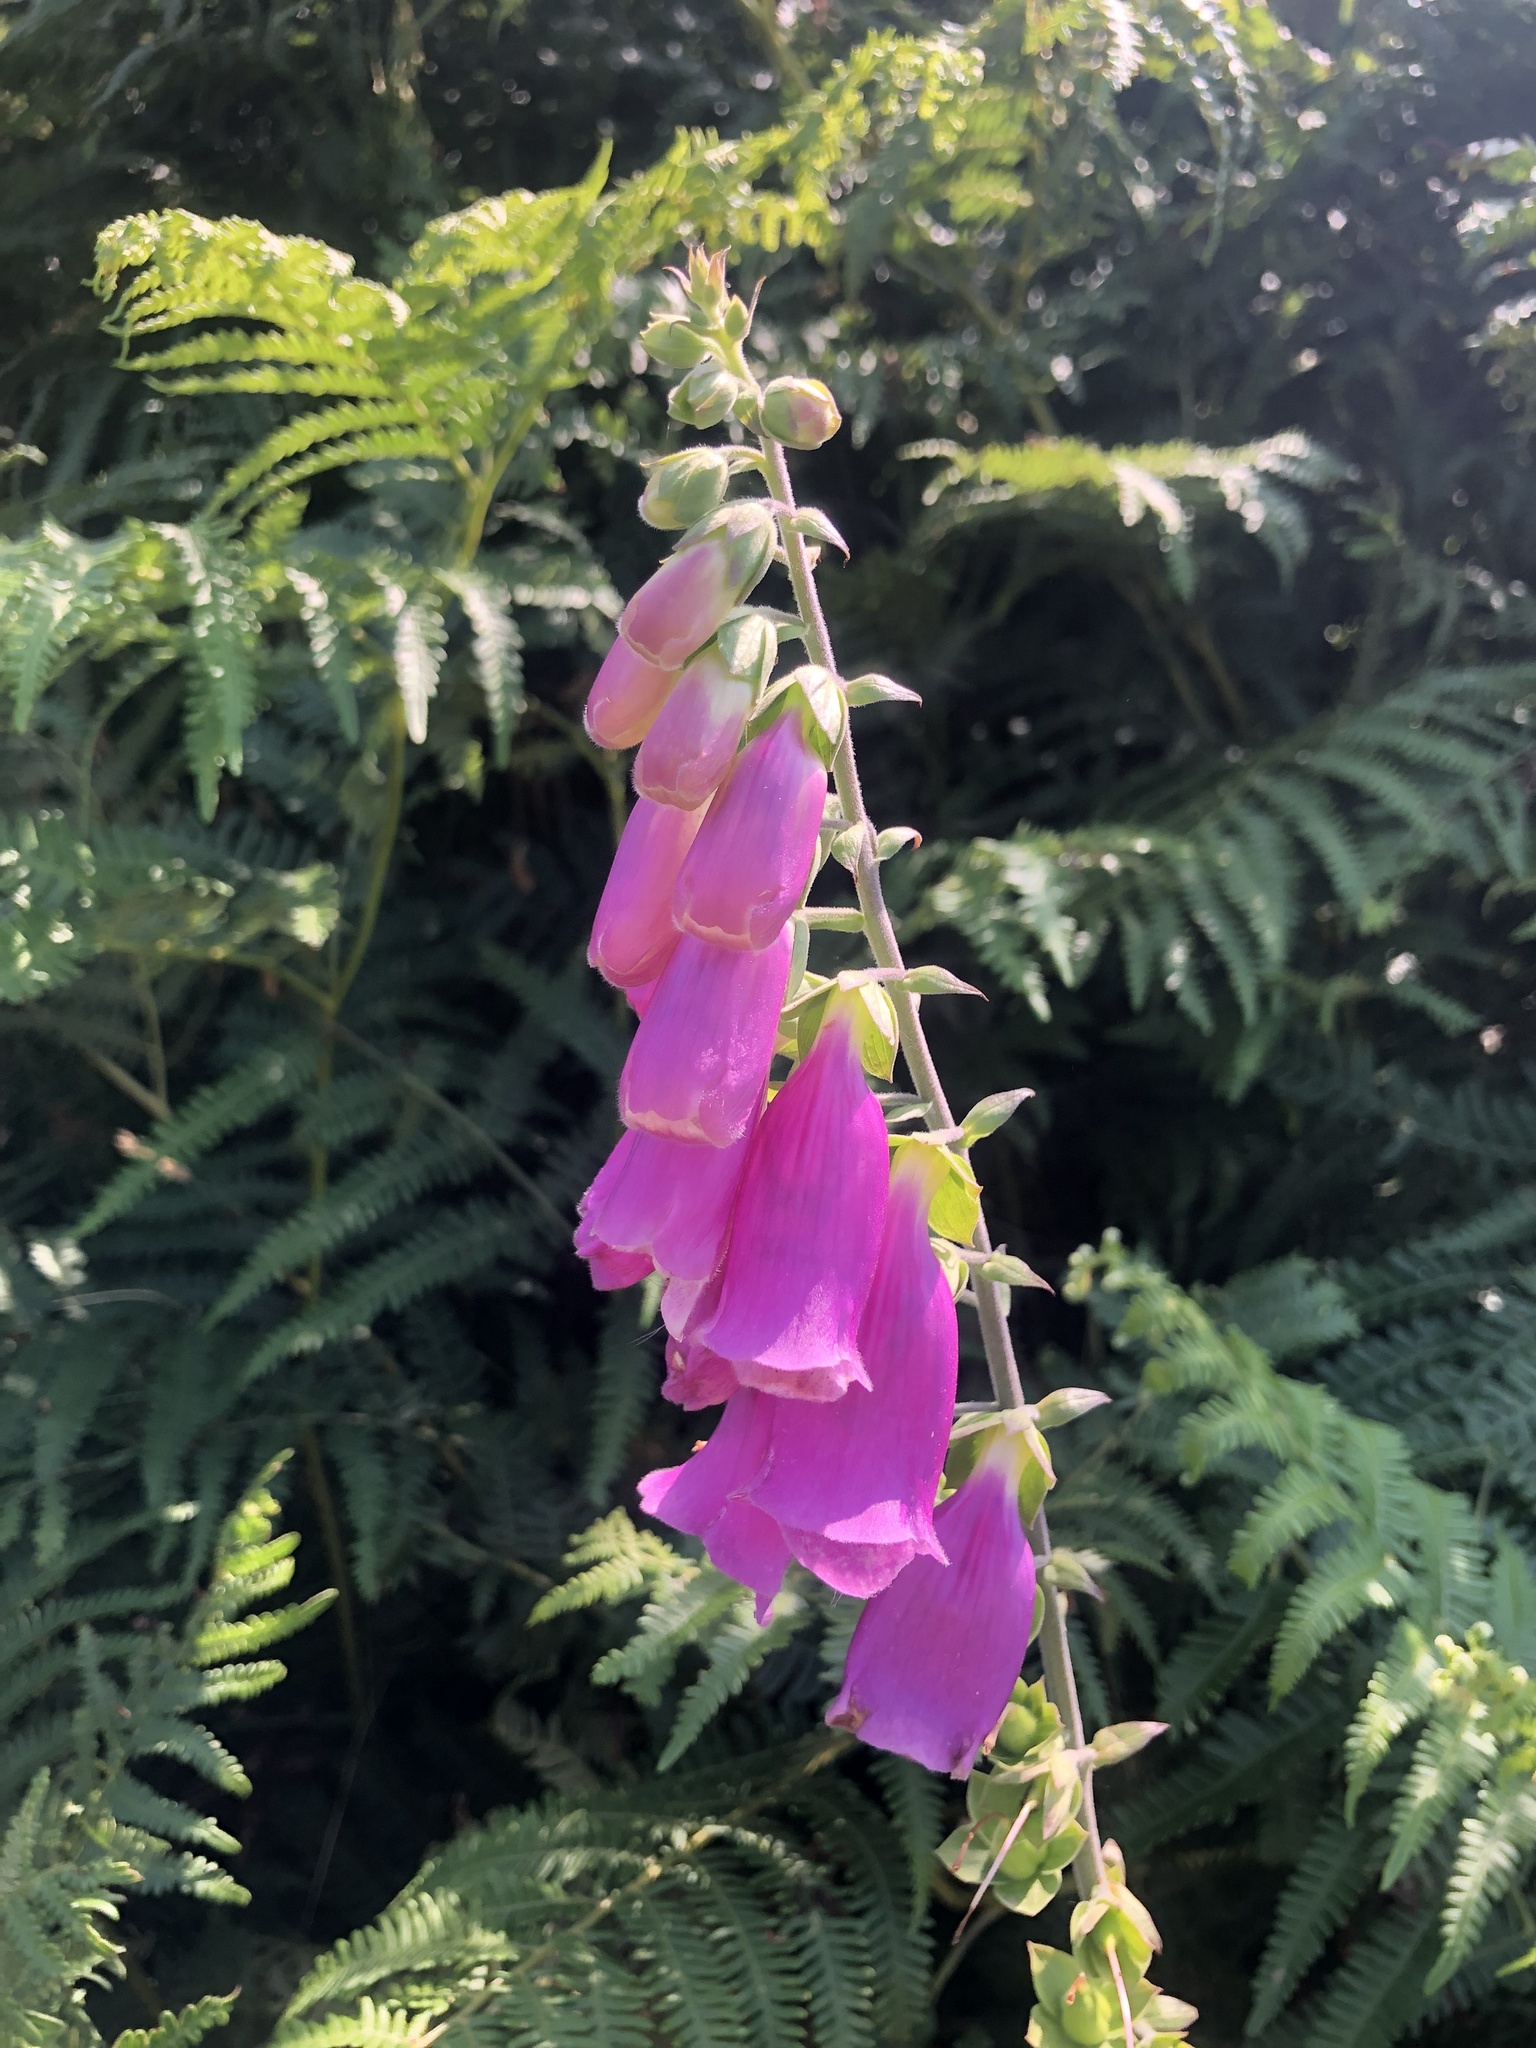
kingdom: Plantae
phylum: Tracheophyta
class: Magnoliopsida
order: Lamiales
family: Plantaginaceae
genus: Digitalis
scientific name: Digitalis purpurea
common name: Foxglove
